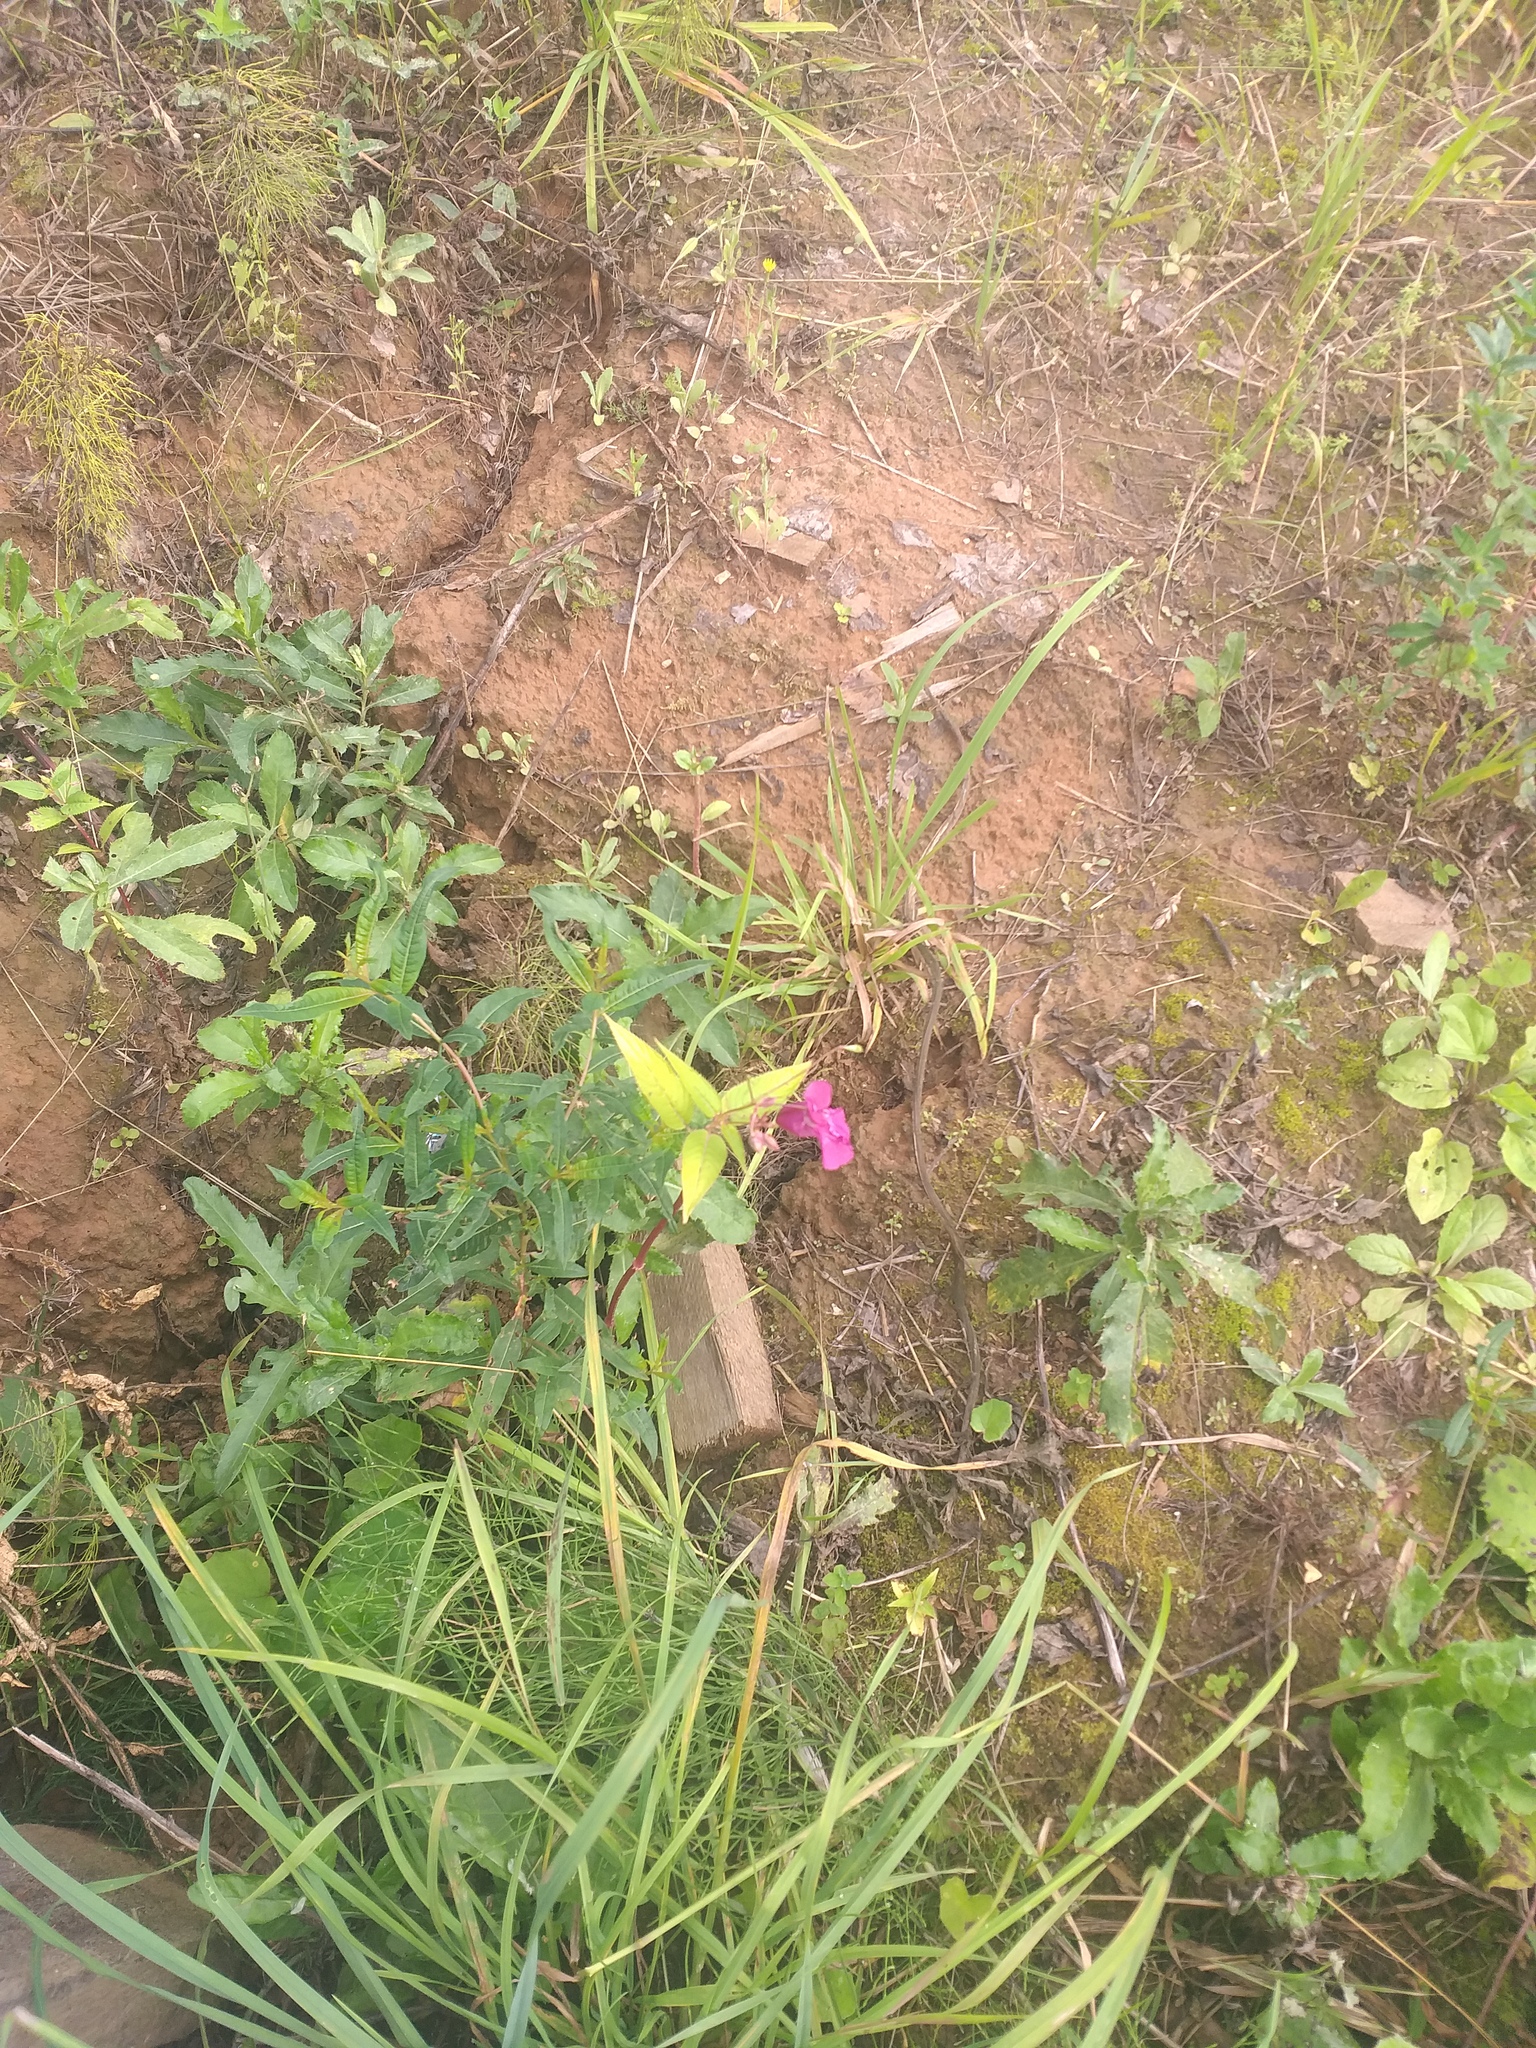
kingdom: Plantae
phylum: Tracheophyta
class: Magnoliopsida
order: Ericales
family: Balsaminaceae
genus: Impatiens
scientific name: Impatiens glandulifera
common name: Himalayan balsam
